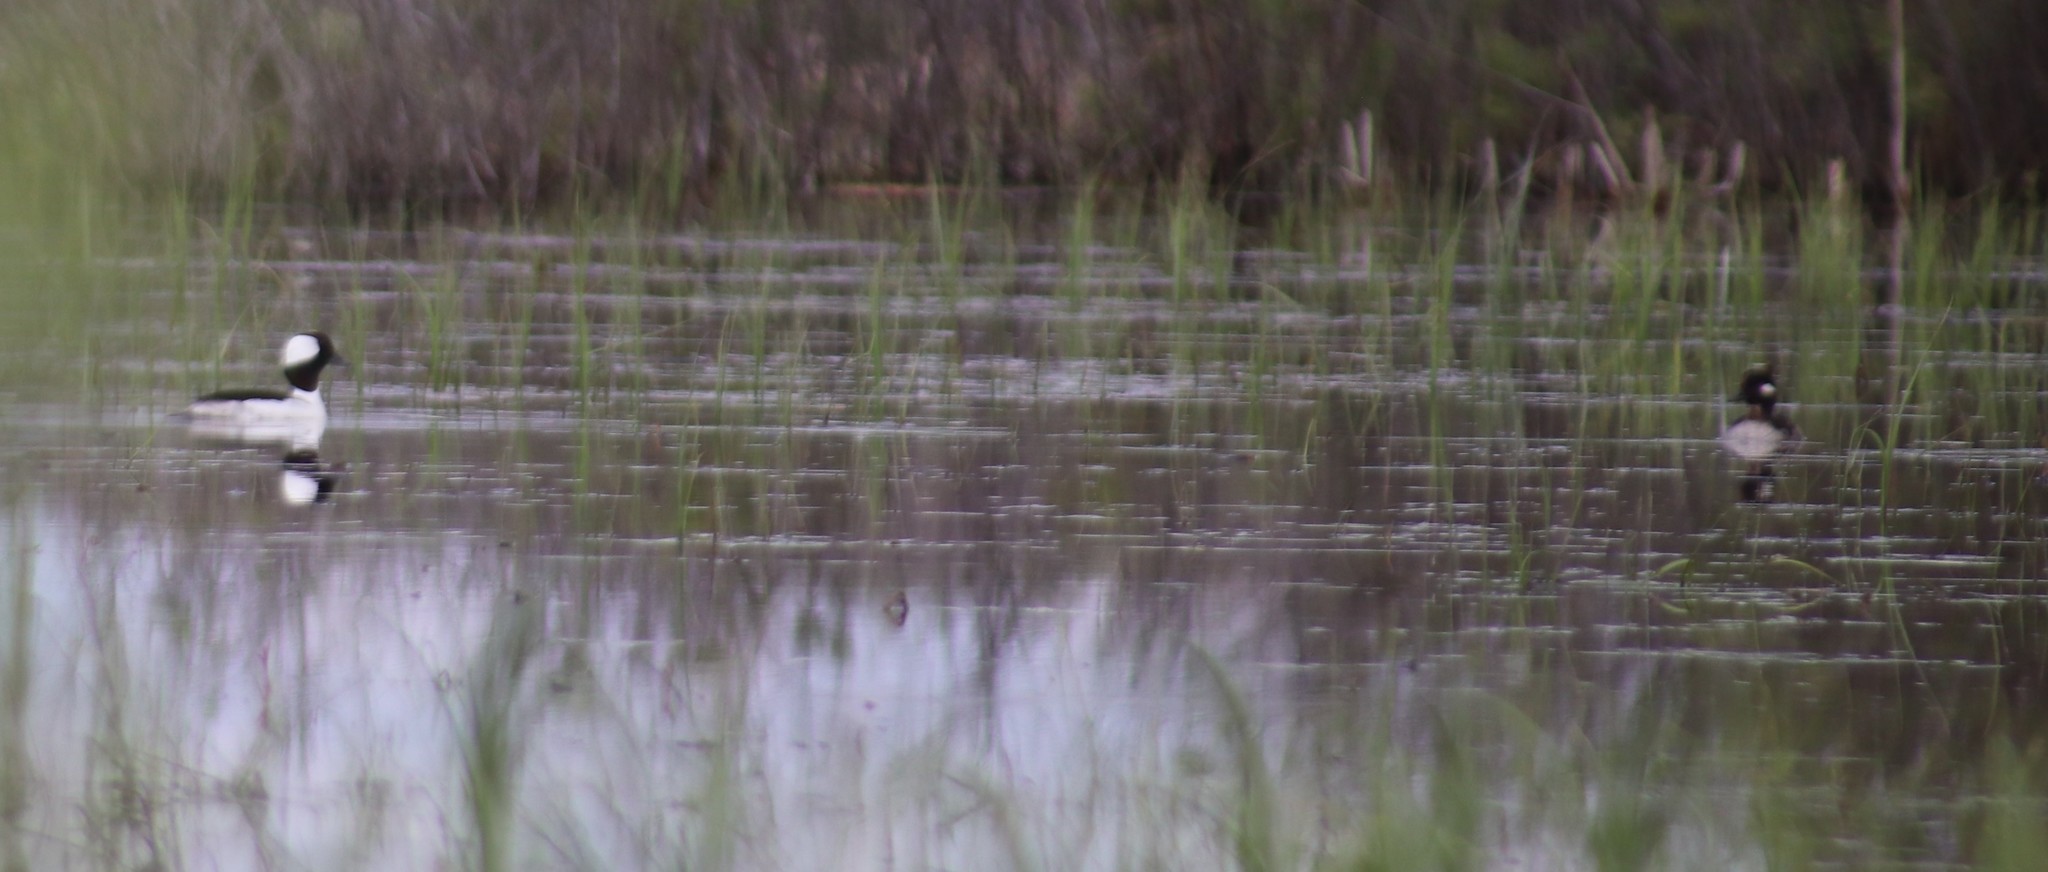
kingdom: Animalia
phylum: Chordata
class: Aves
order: Anseriformes
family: Anatidae
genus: Bucephala
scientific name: Bucephala albeola
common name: Bufflehead
